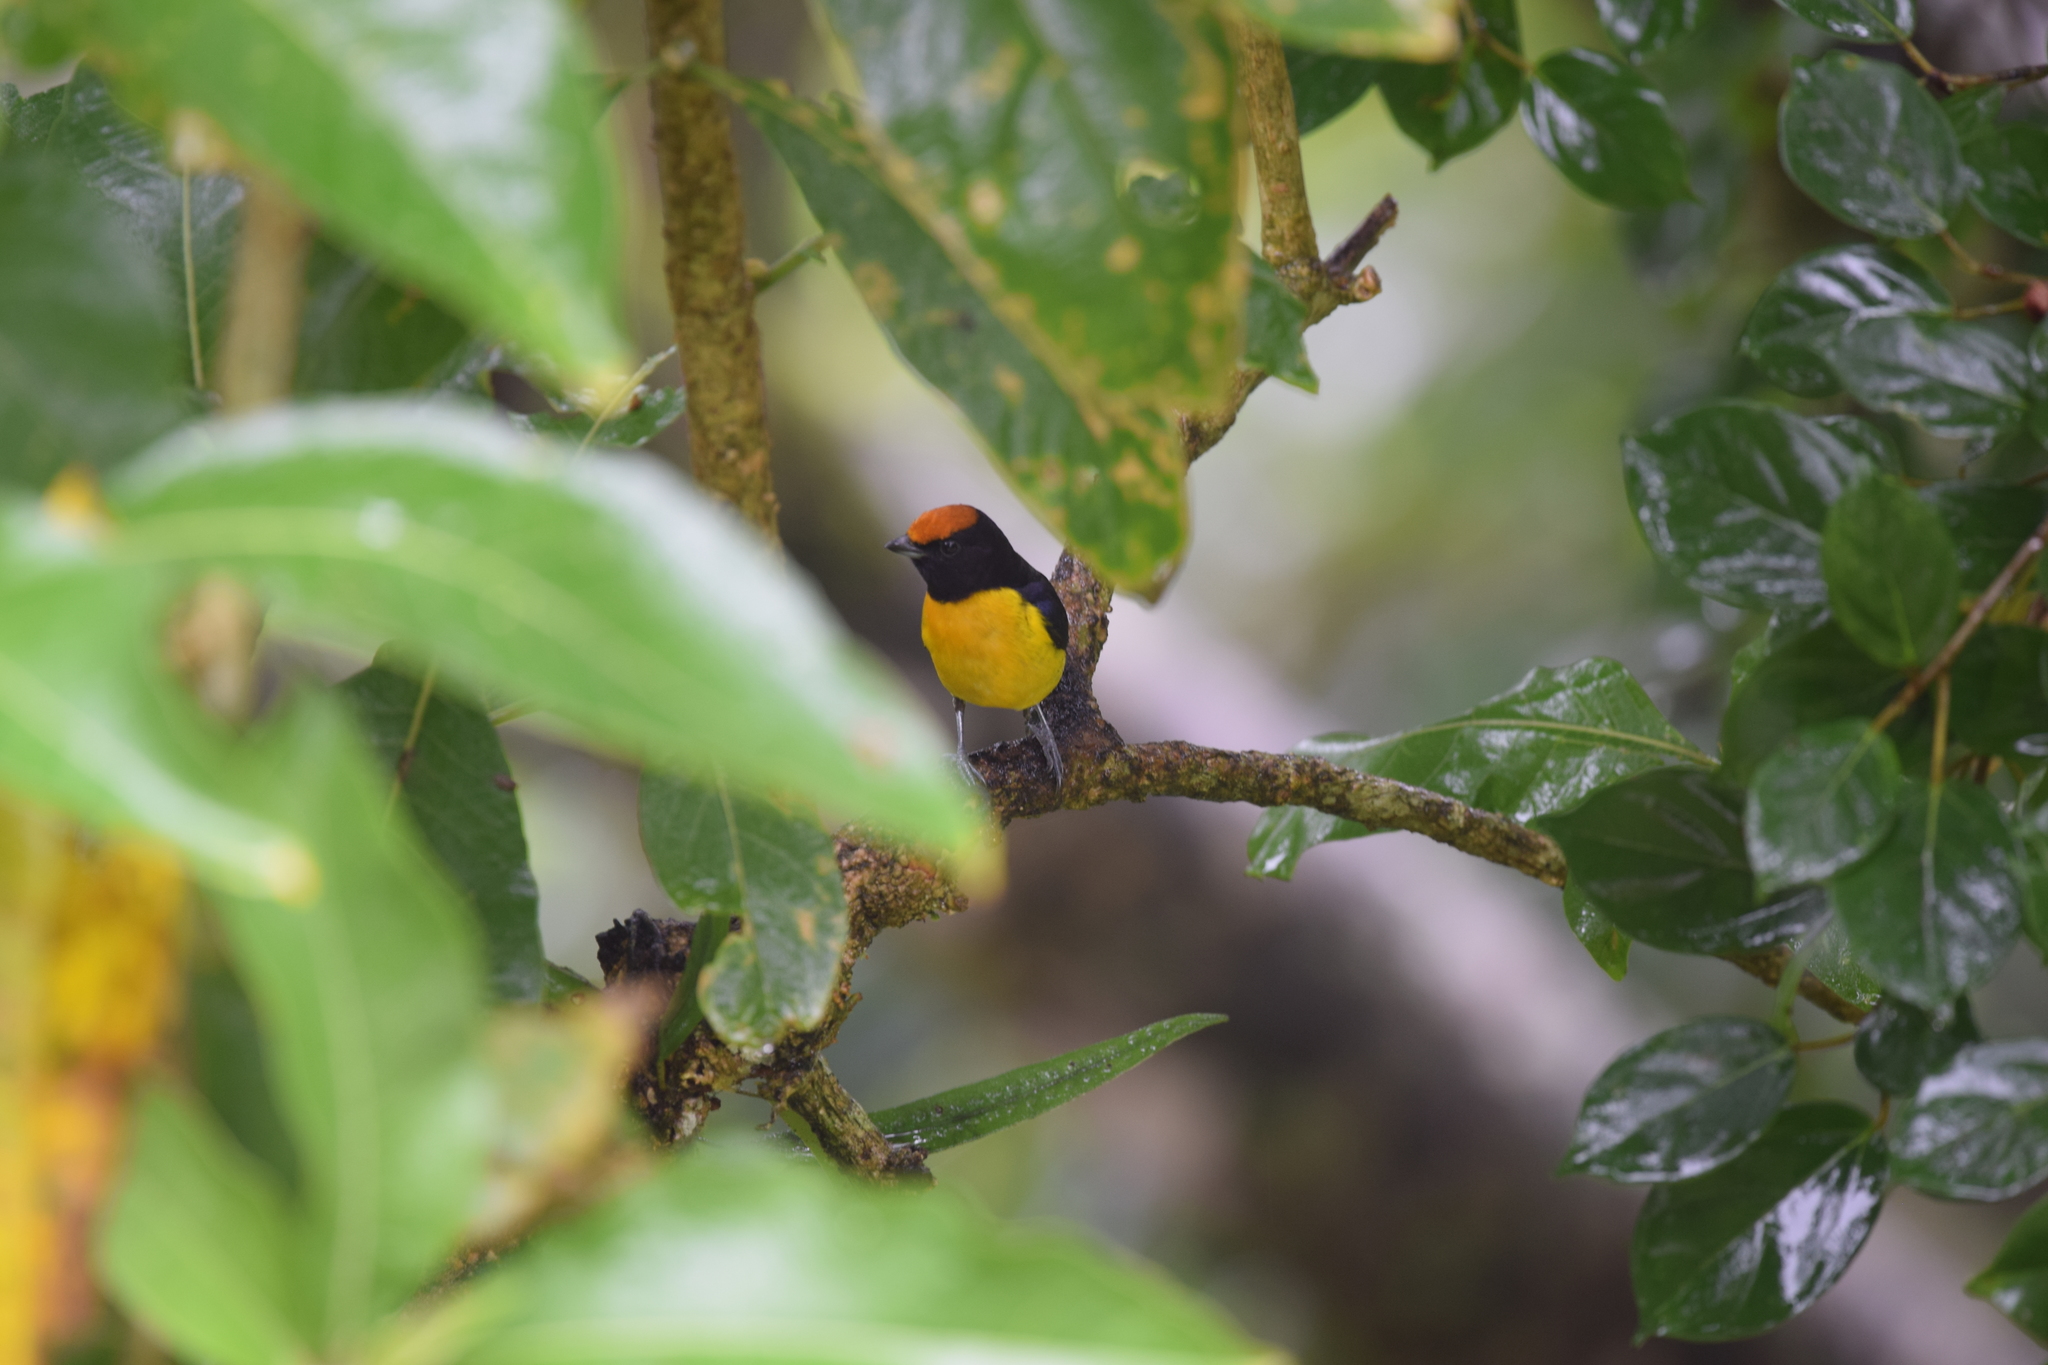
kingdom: Animalia
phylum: Chordata
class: Aves
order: Passeriformes
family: Fringillidae
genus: Euphonia
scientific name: Euphonia anneae
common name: Tawny-capped euphonia
